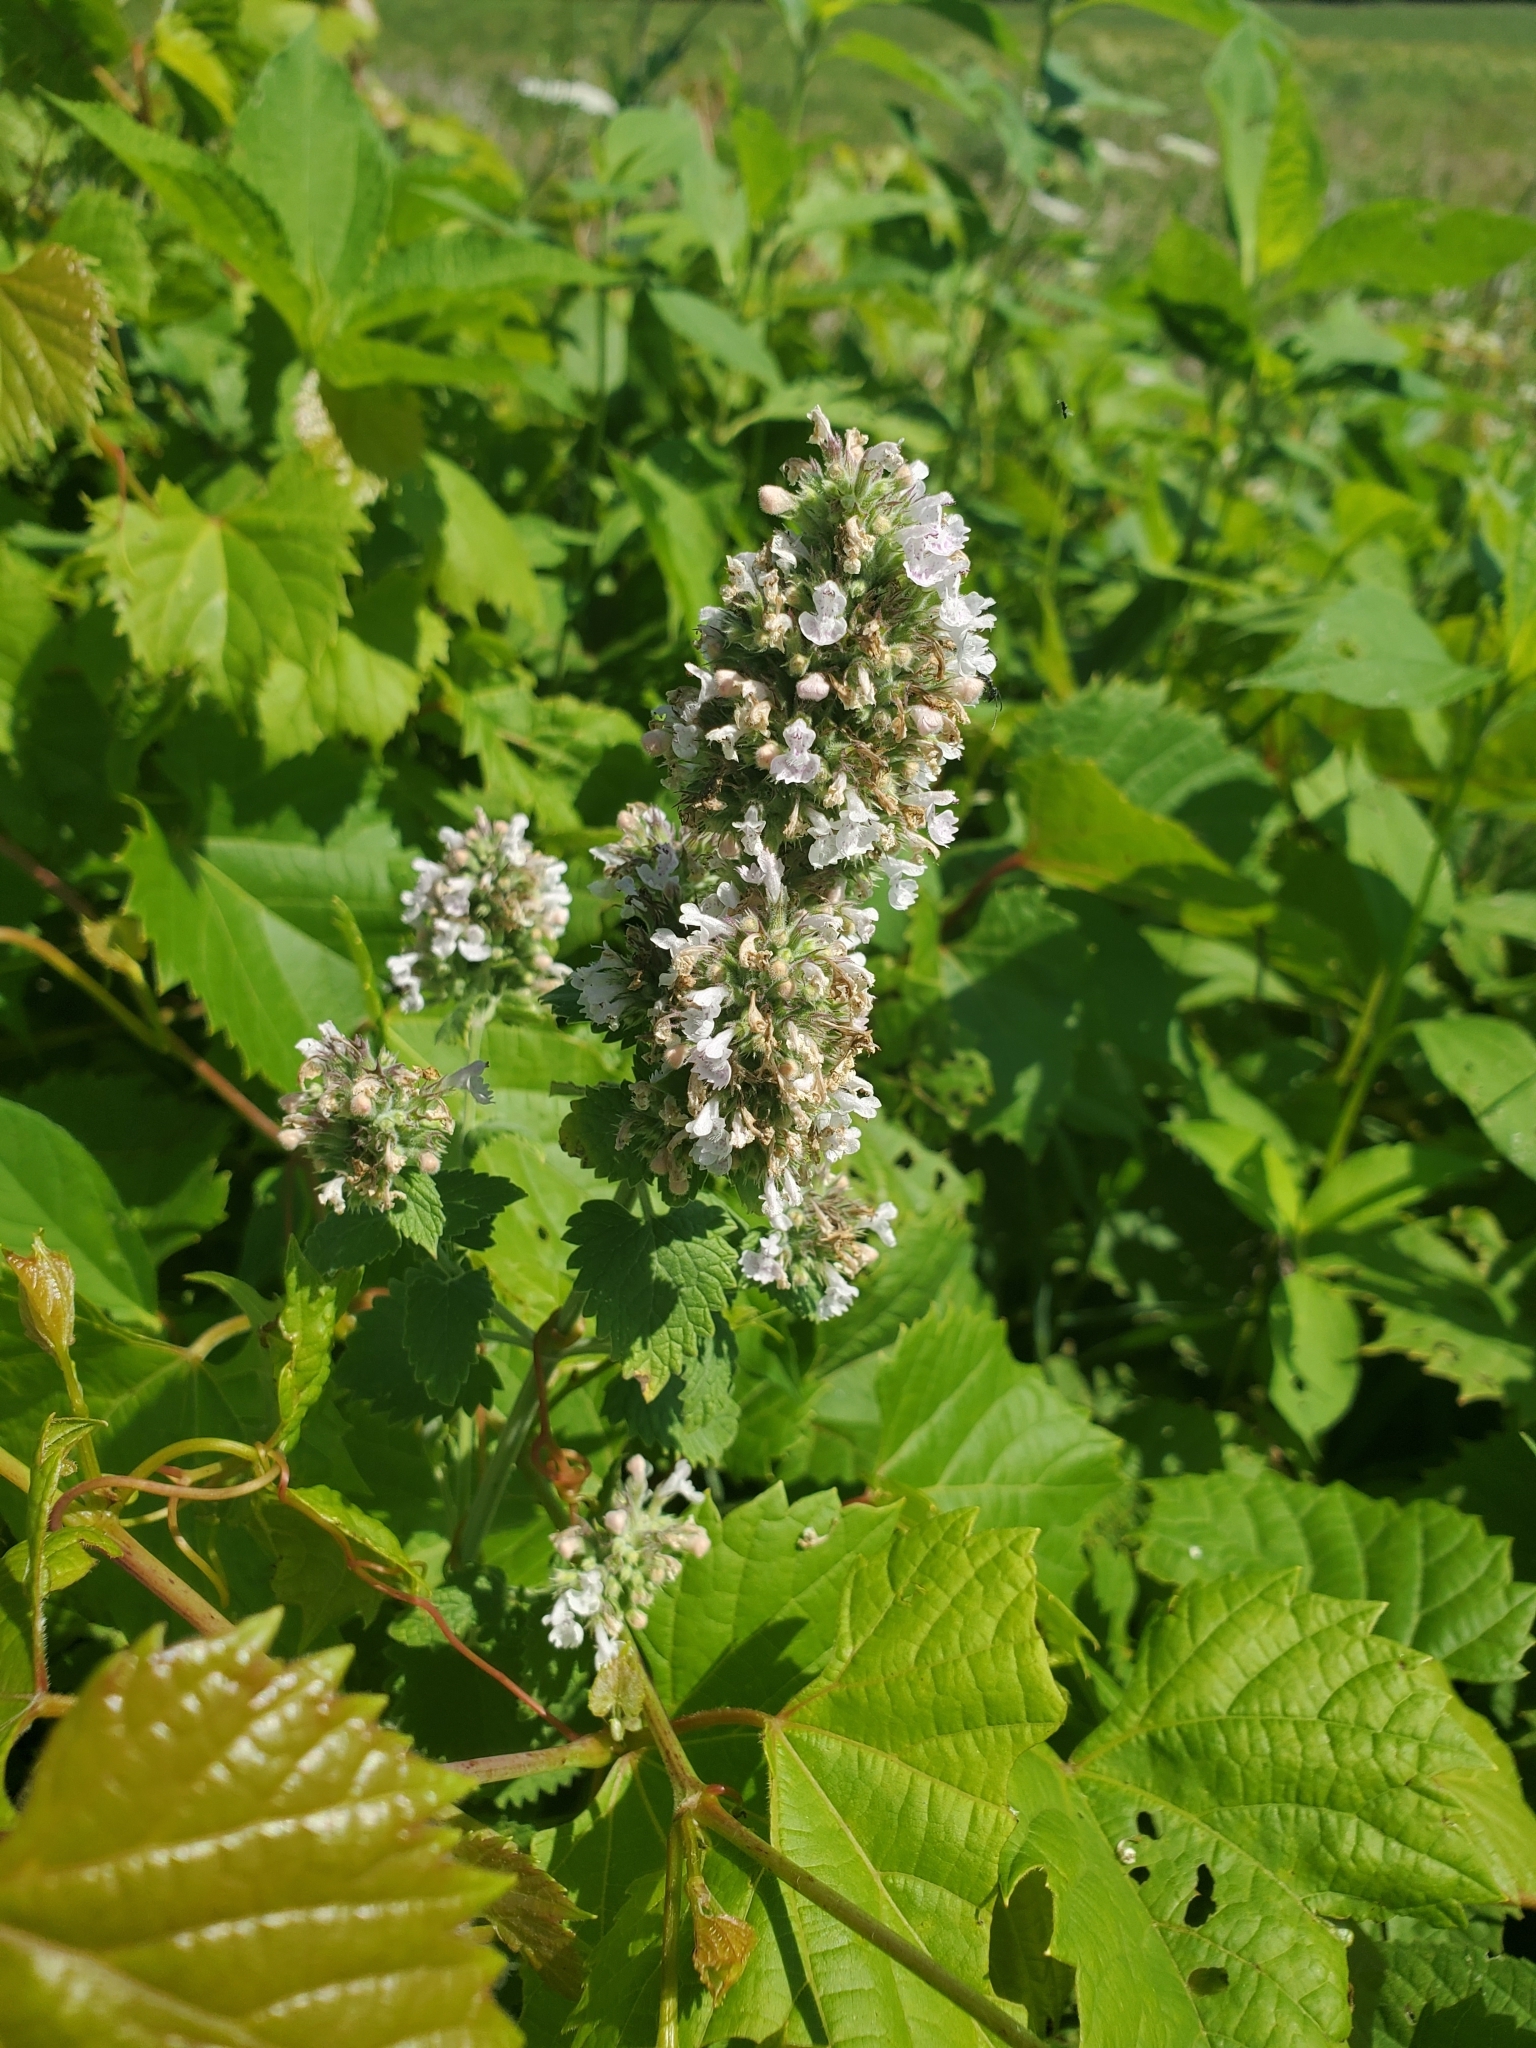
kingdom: Plantae
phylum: Tracheophyta
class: Magnoliopsida
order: Lamiales
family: Lamiaceae
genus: Nepeta
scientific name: Nepeta cataria
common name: Catnip
